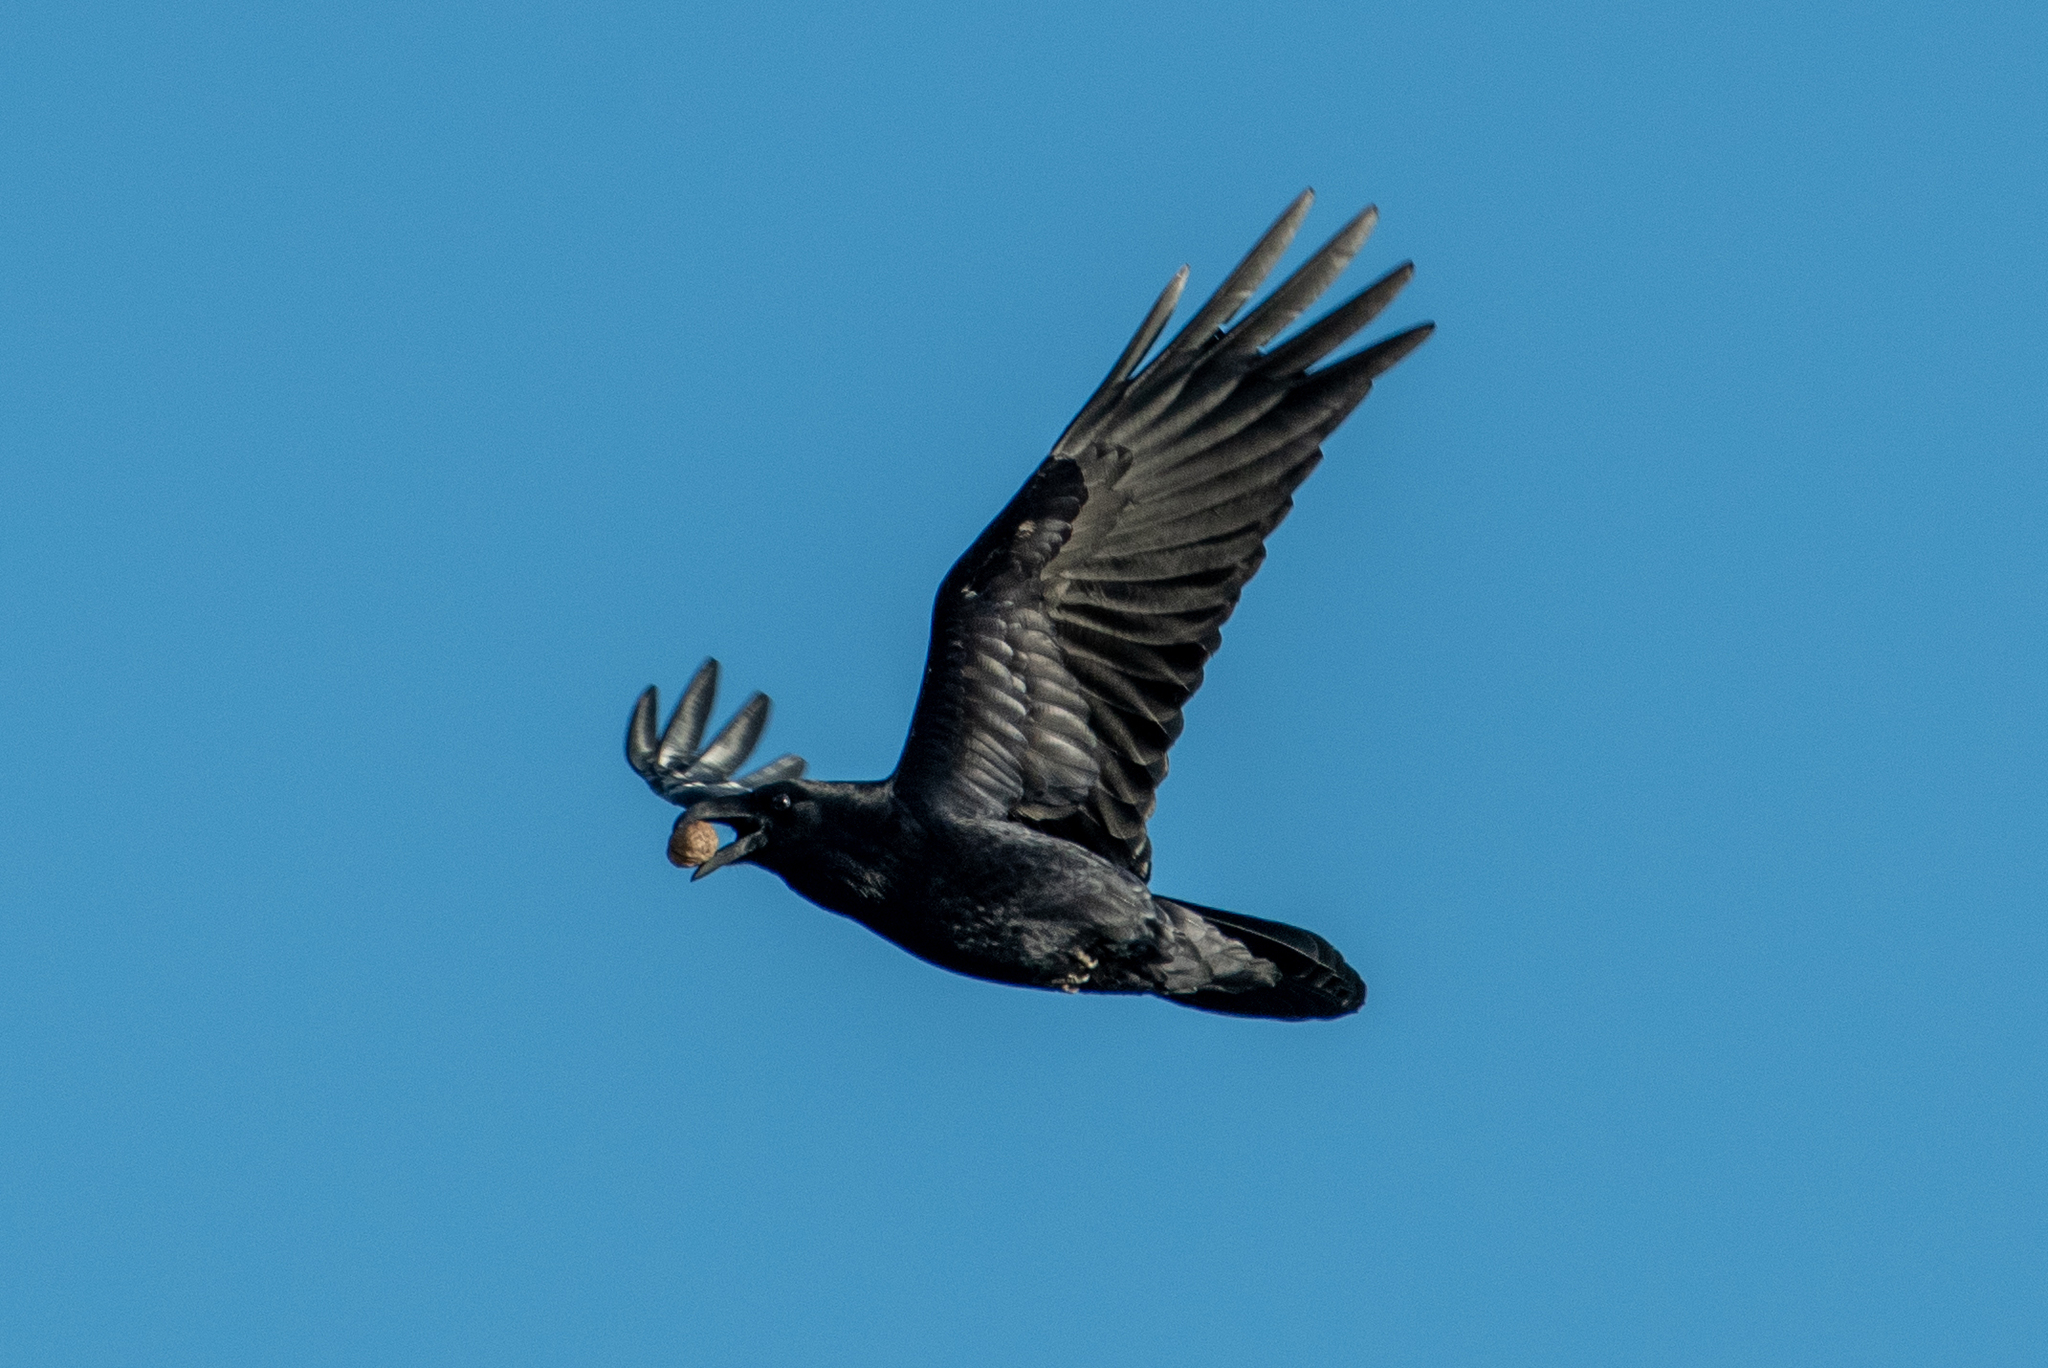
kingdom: Animalia
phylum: Chordata
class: Aves
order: Passeriformes
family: Corvidae
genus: Corvus
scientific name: Corvus corax
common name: Common raven
